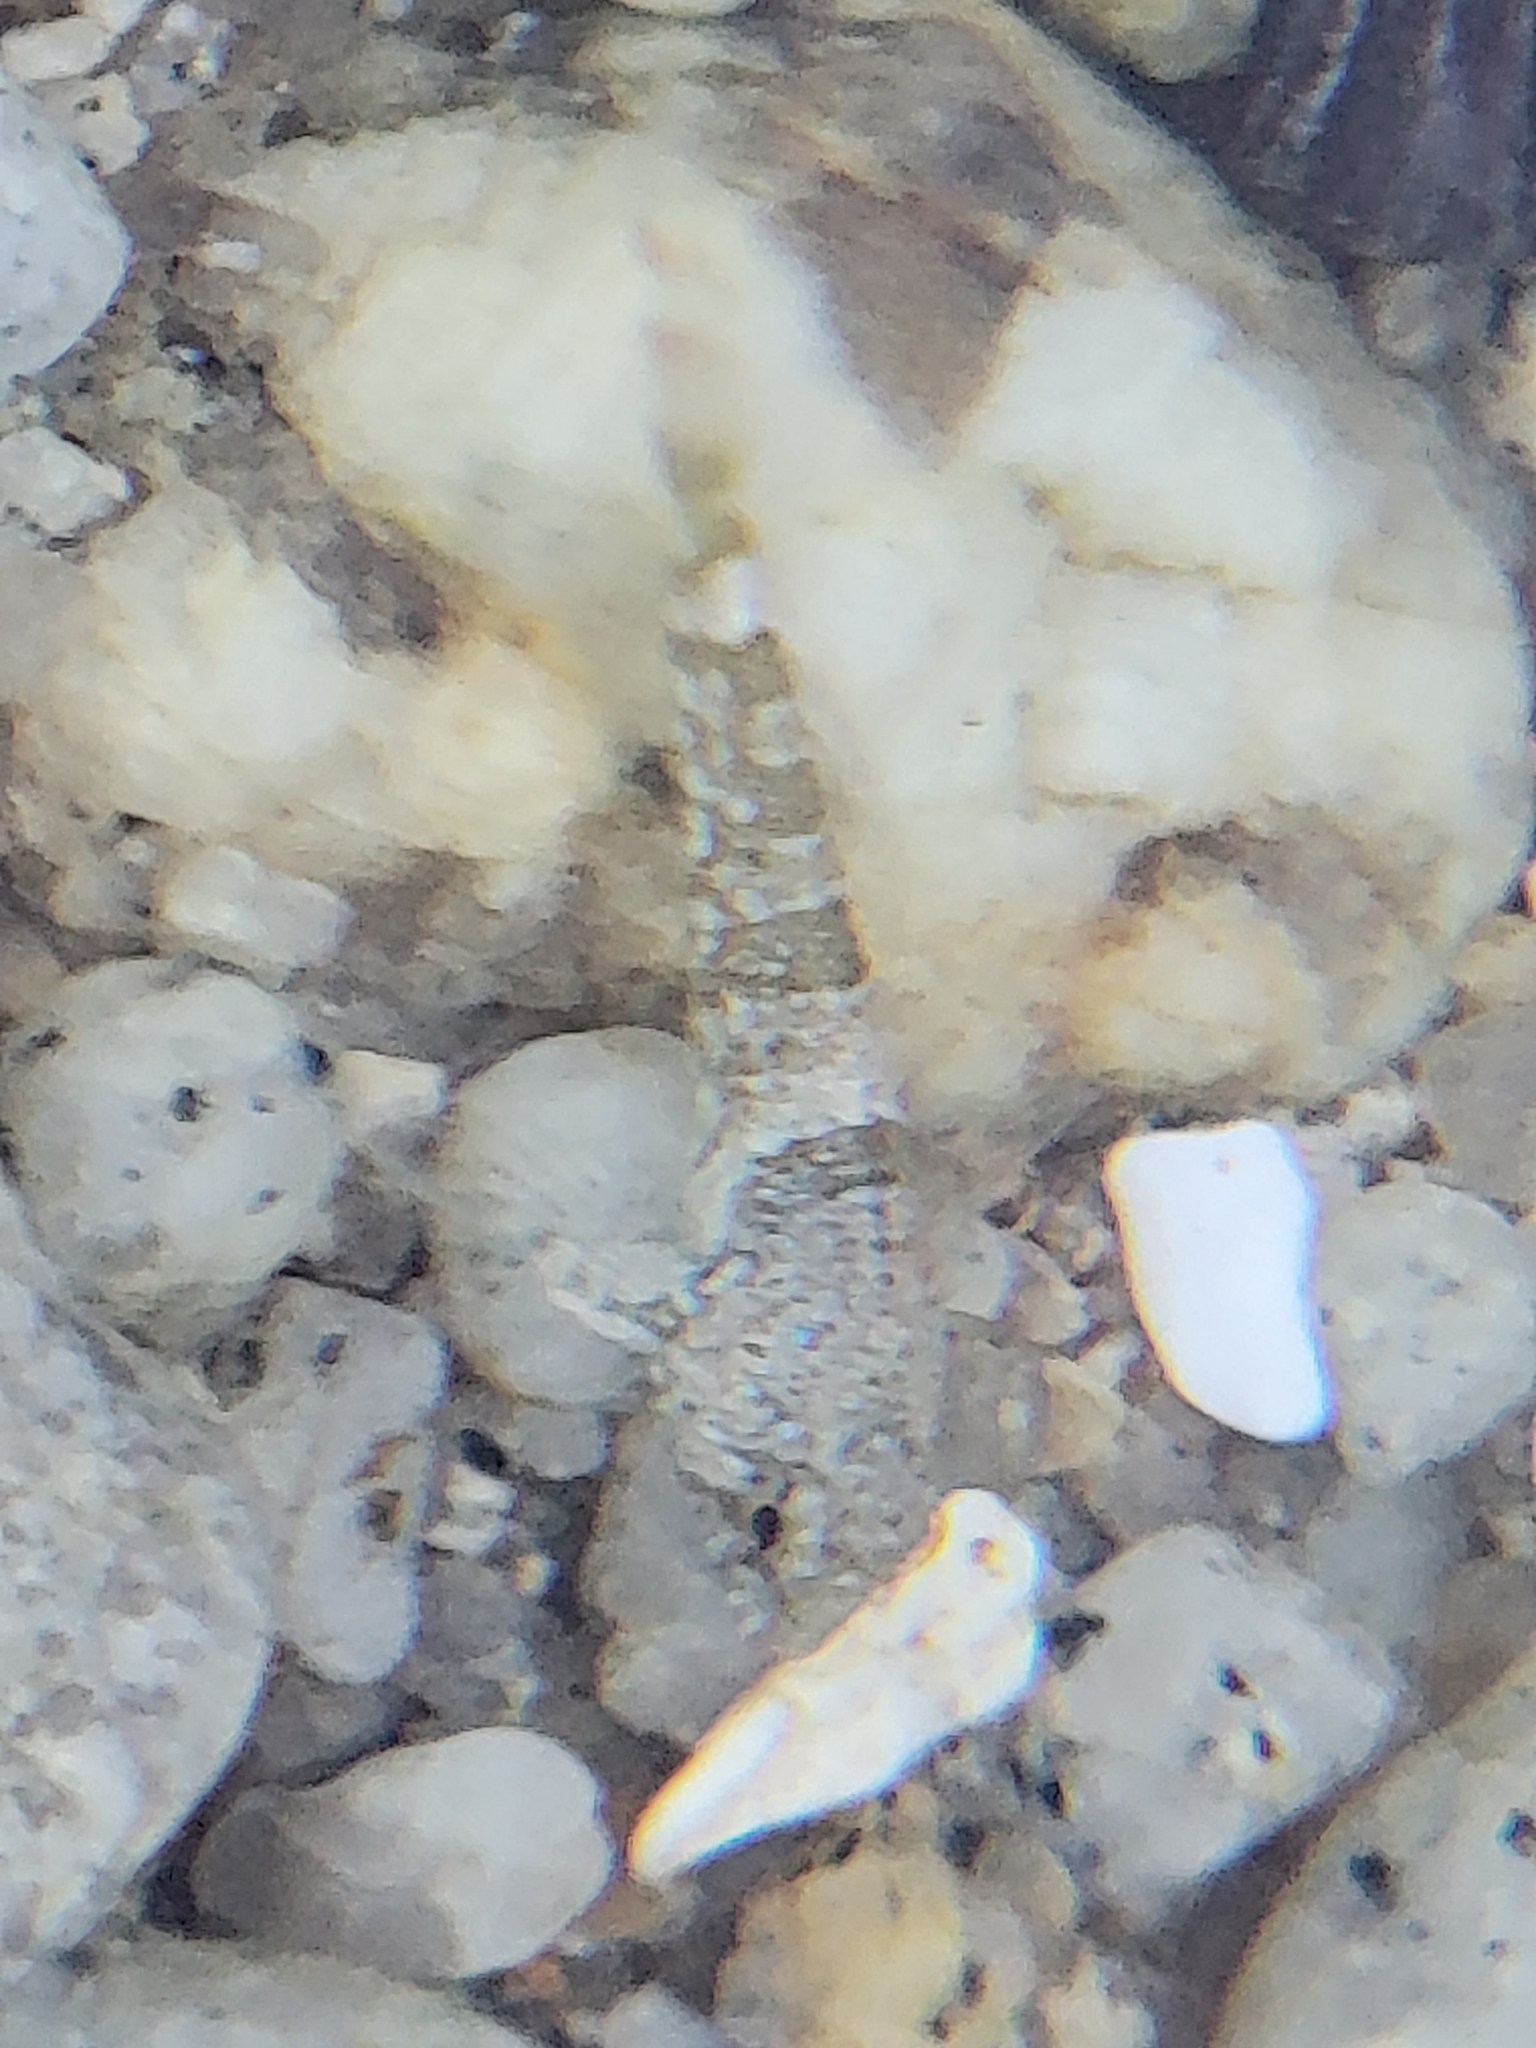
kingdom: Animalia
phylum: Chordata
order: Scorpaeniformes
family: Cottidae
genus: Clinocottus
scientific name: Clinocottus analis
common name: Woolly sculpin
